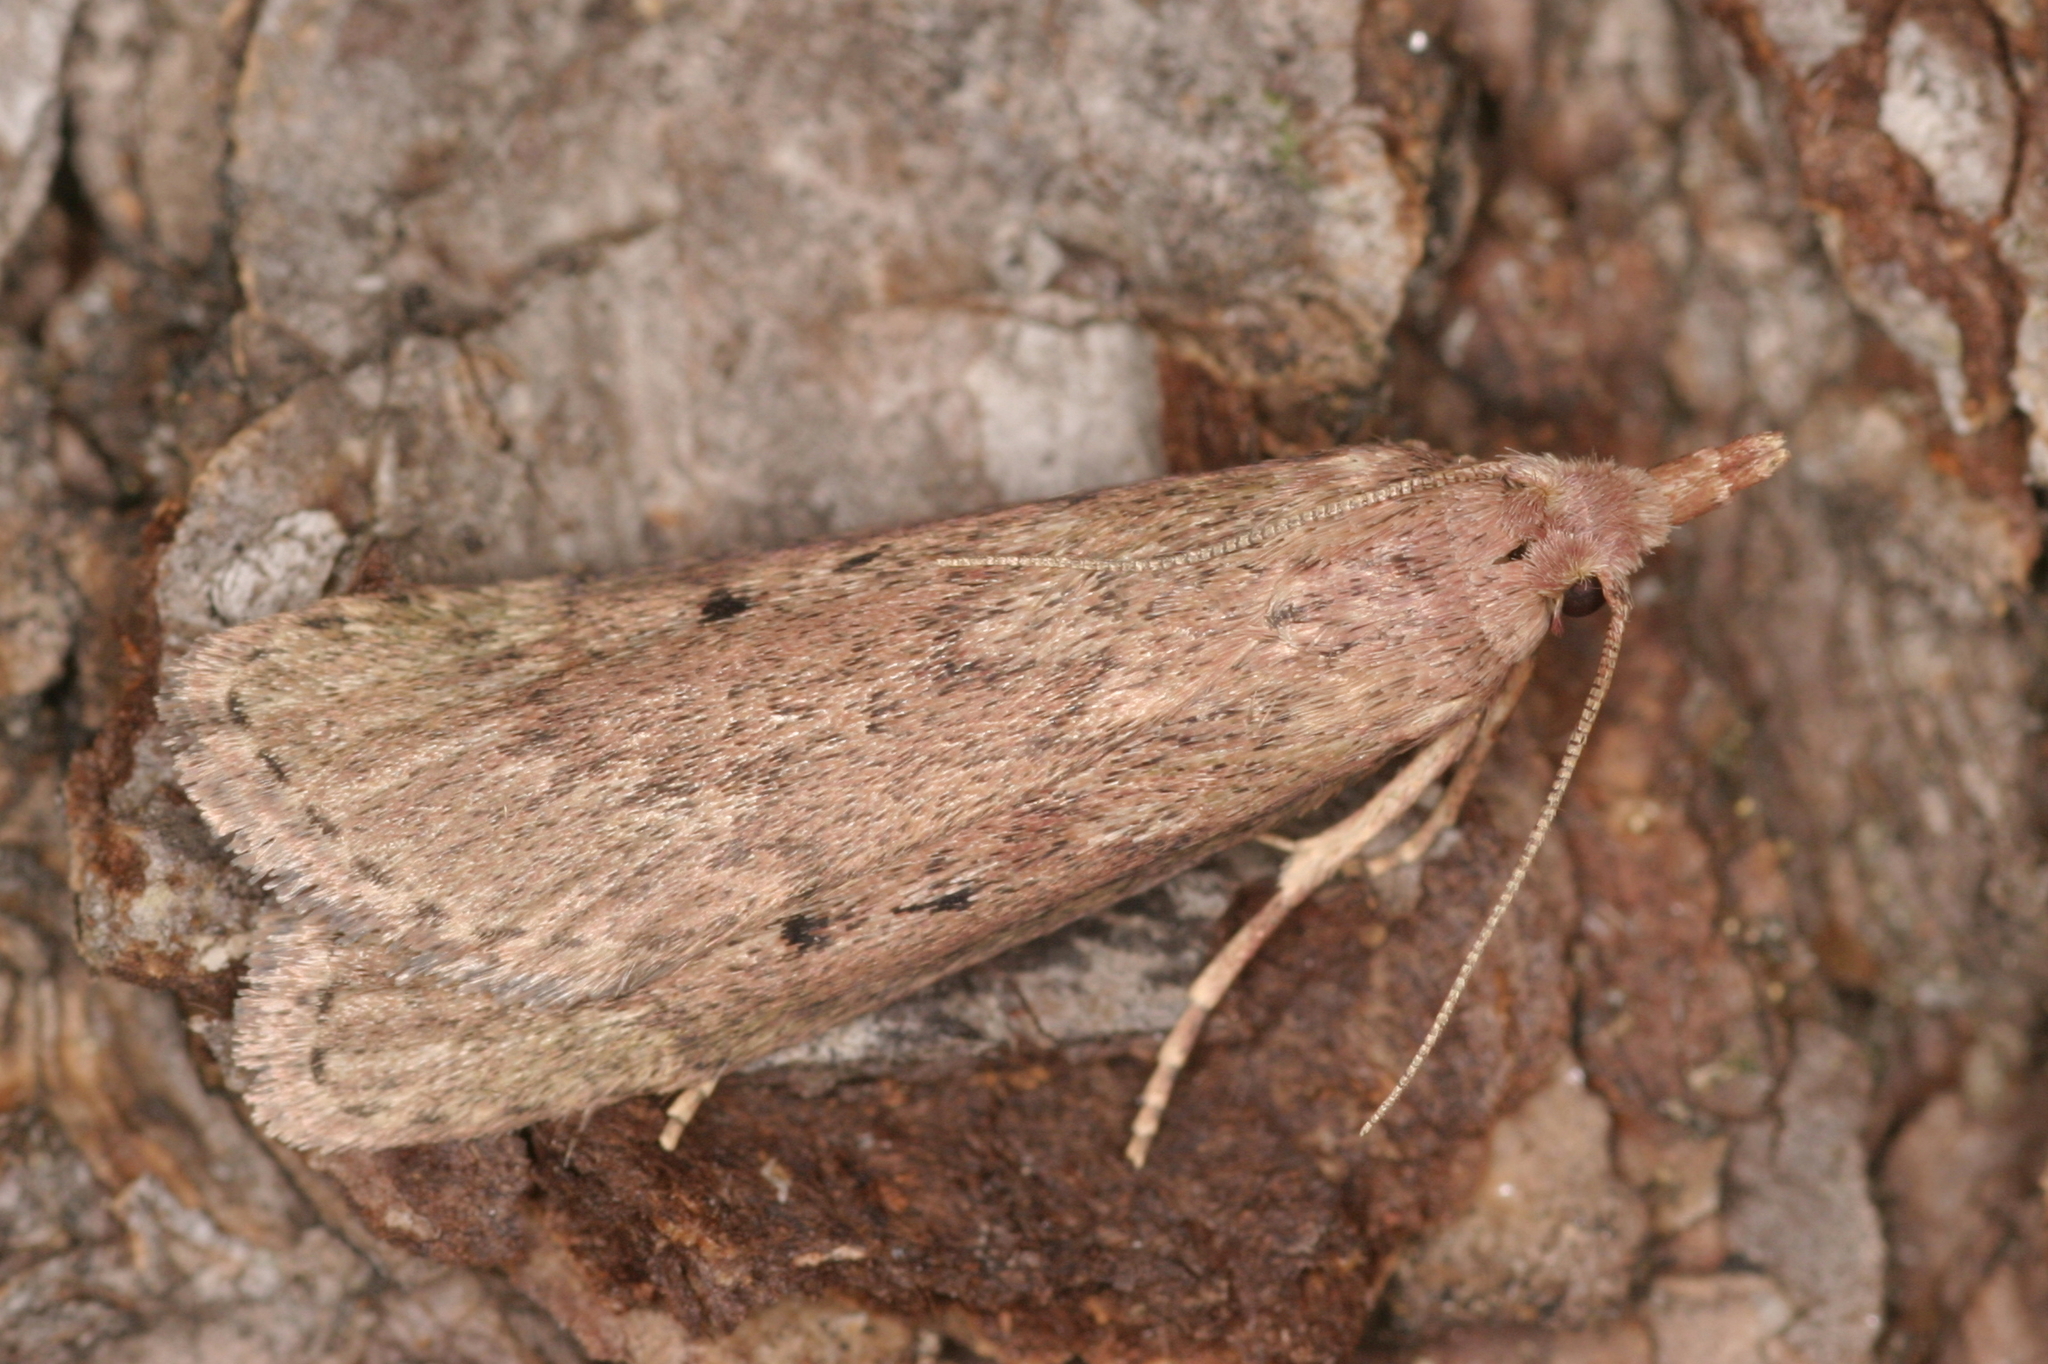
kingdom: Animalia
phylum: Arthropoda
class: Insecta
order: Lepidoptera
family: Pyralidae
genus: Aphomia
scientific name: Aphomia sociella
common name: Bee moth
